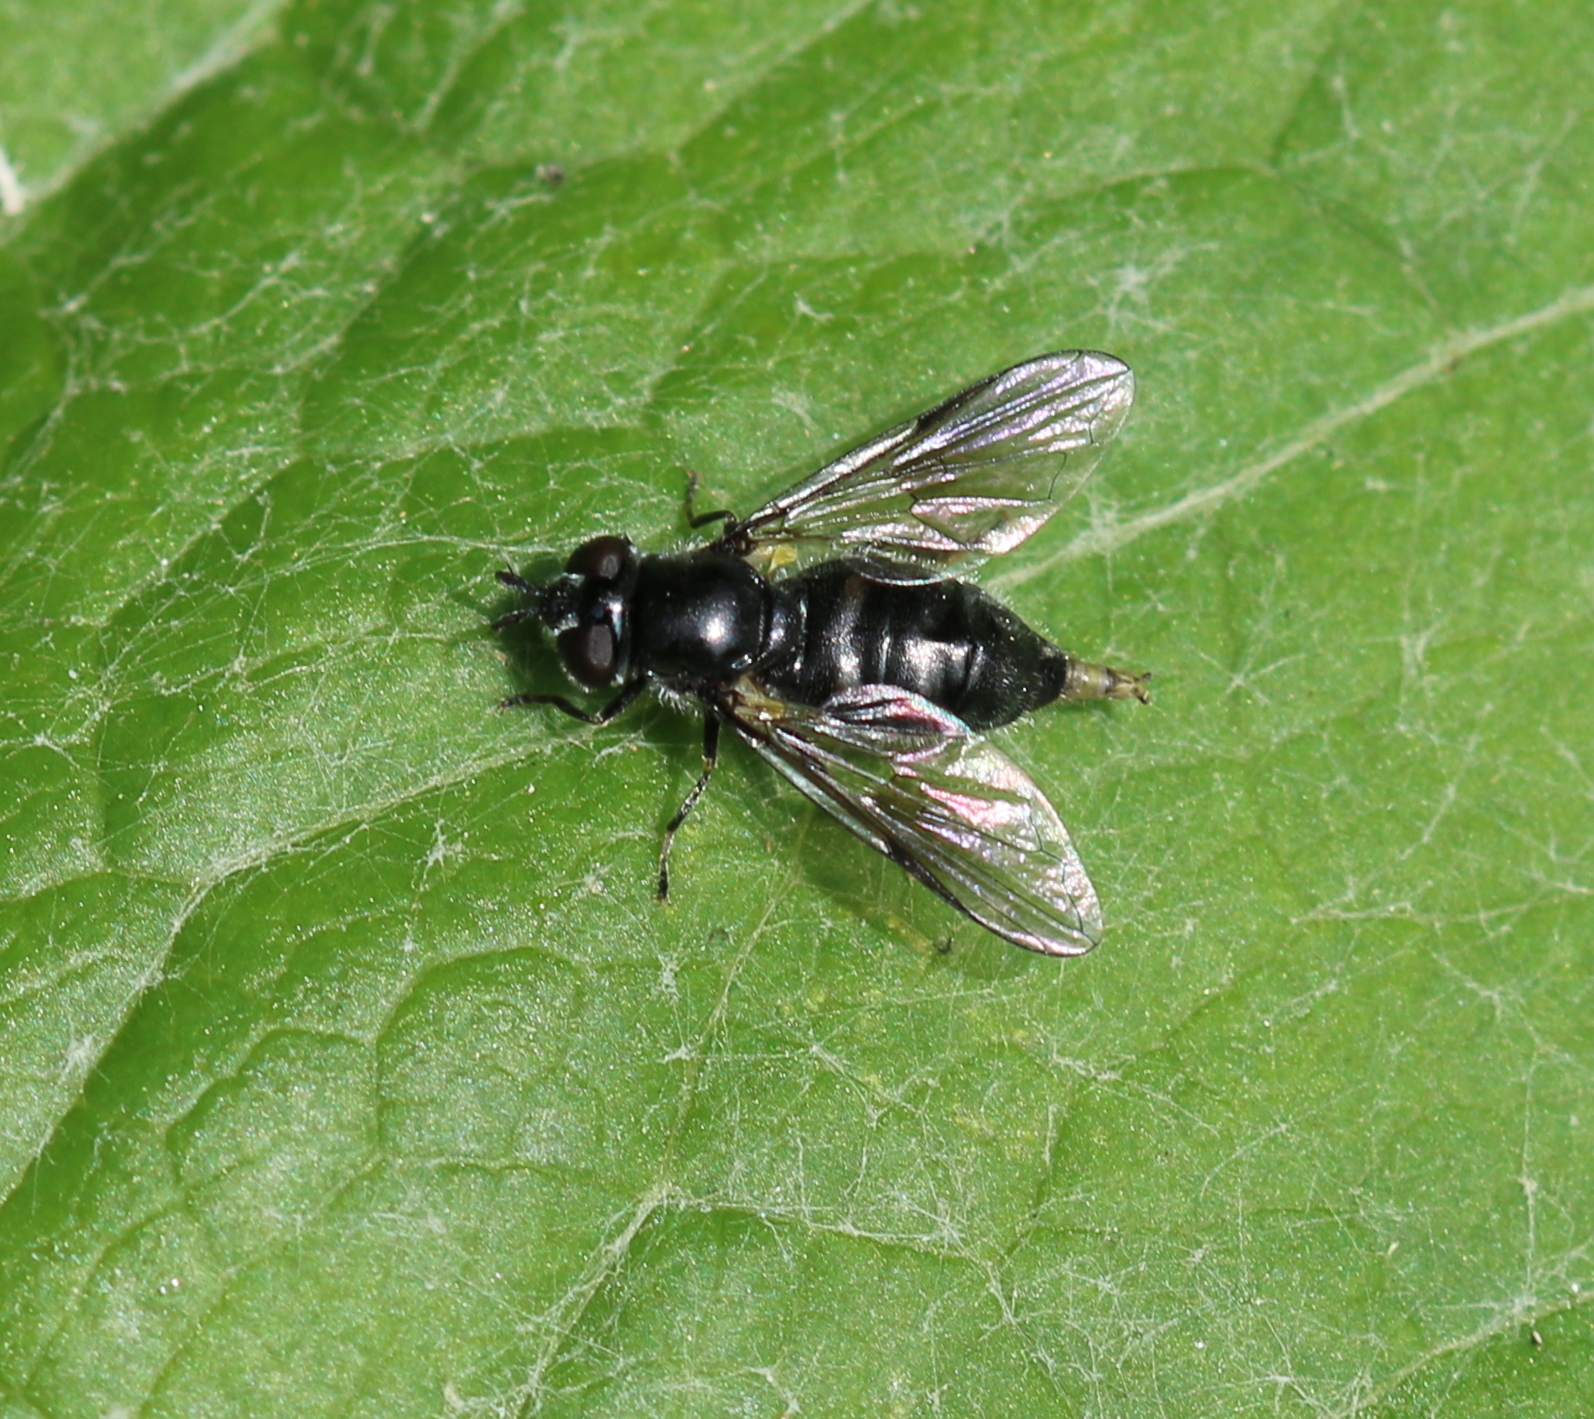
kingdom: Animalia
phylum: Arthropoda
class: Insecta
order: Diptera
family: Syrphidae
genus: Pipiza
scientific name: Pipiza
